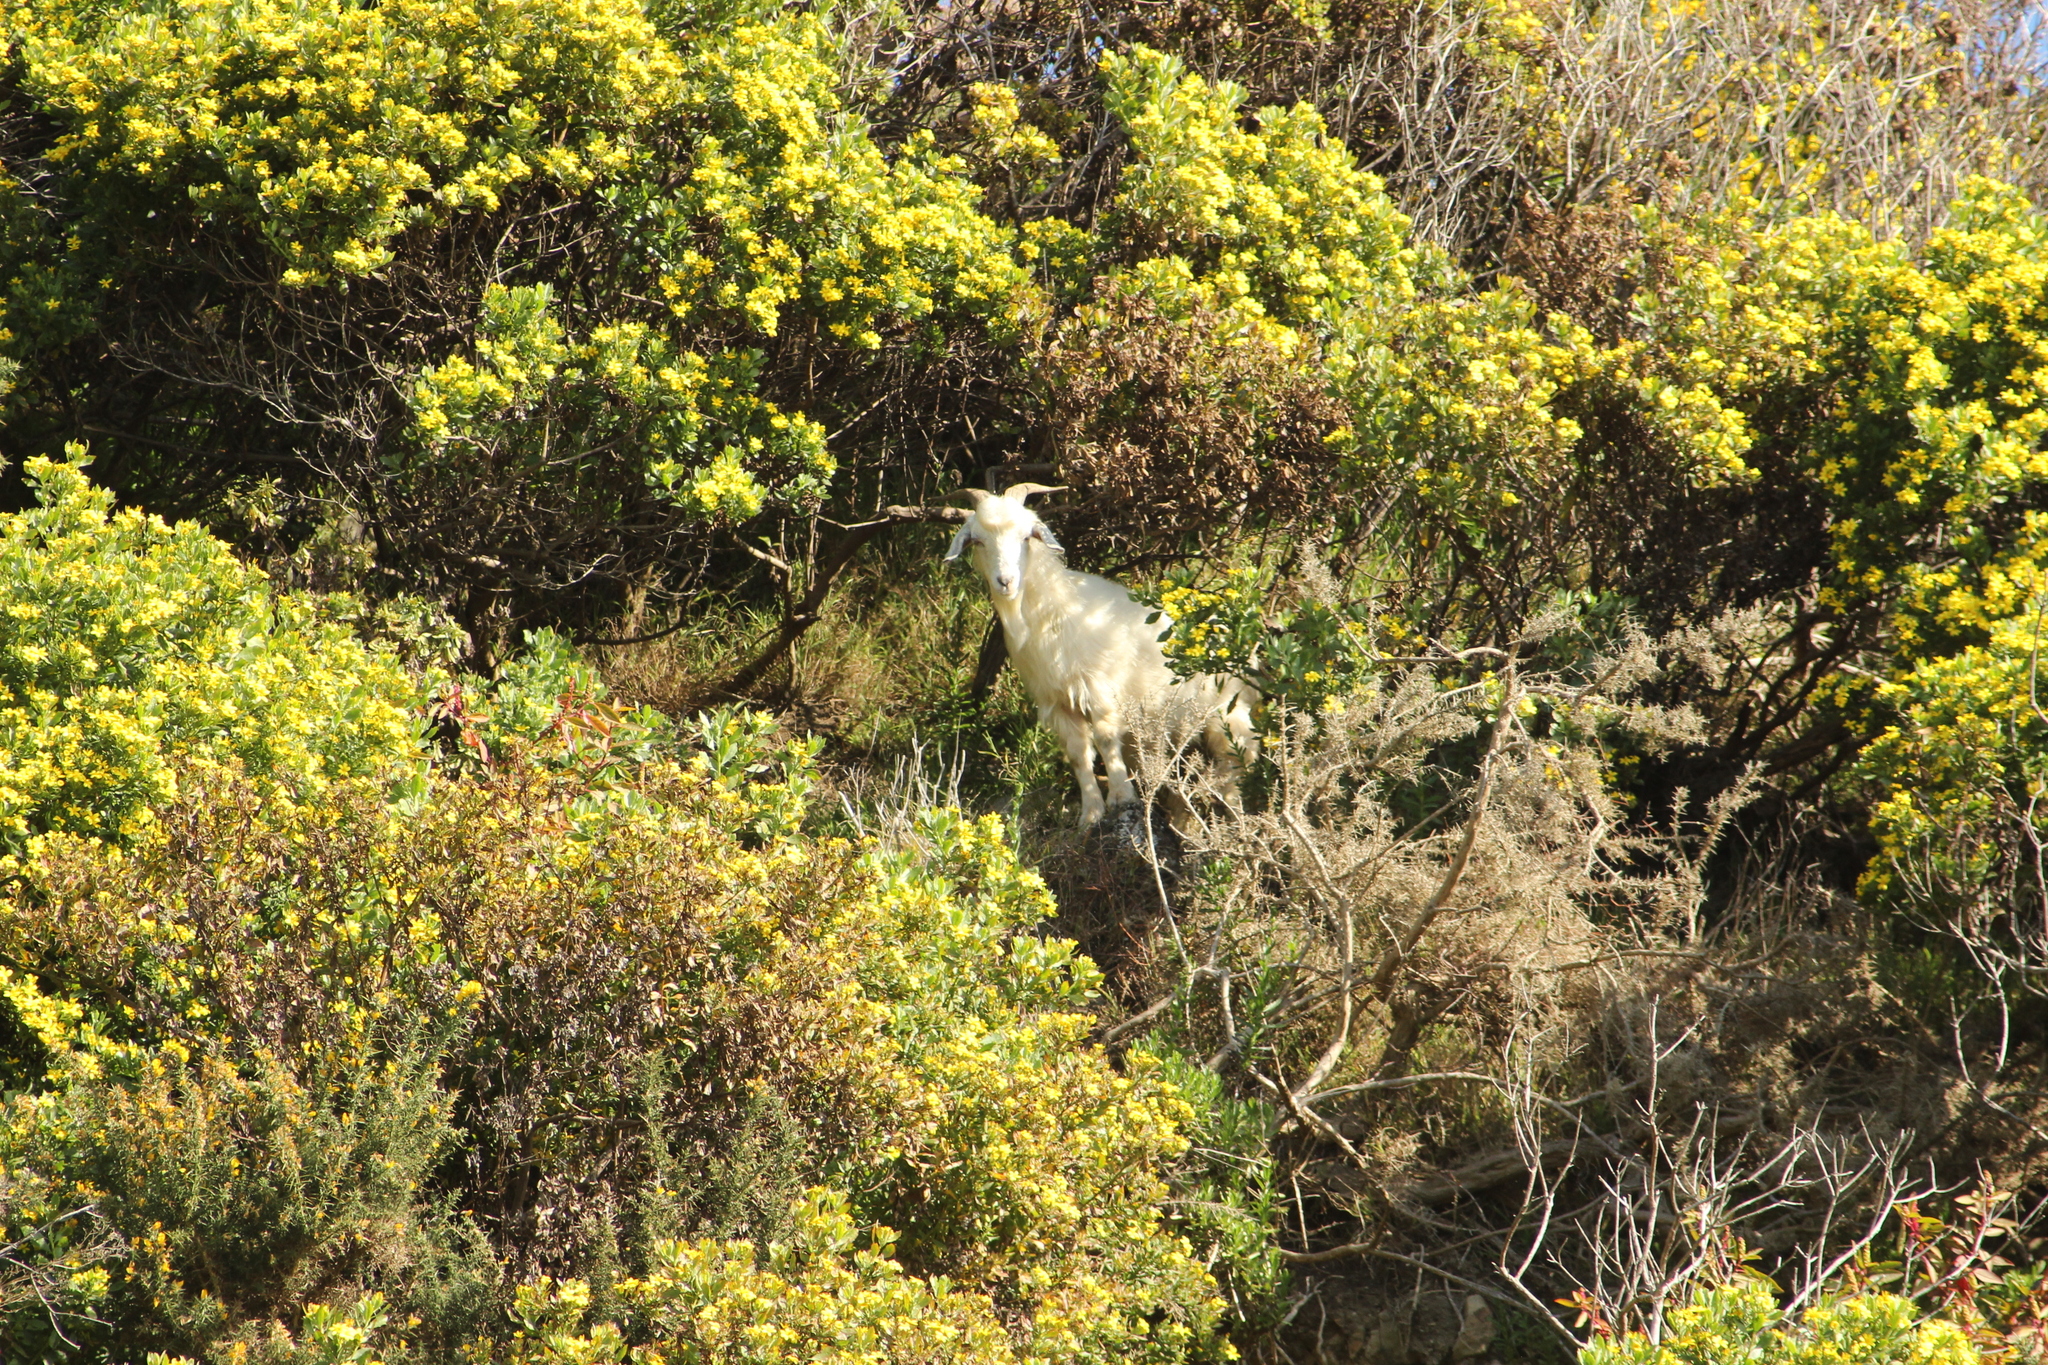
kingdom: Animalia
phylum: Chordata
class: Mammalia
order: Artiodactyla
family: Bovidae
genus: Capra
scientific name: Capra hircus
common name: Domestic goat
